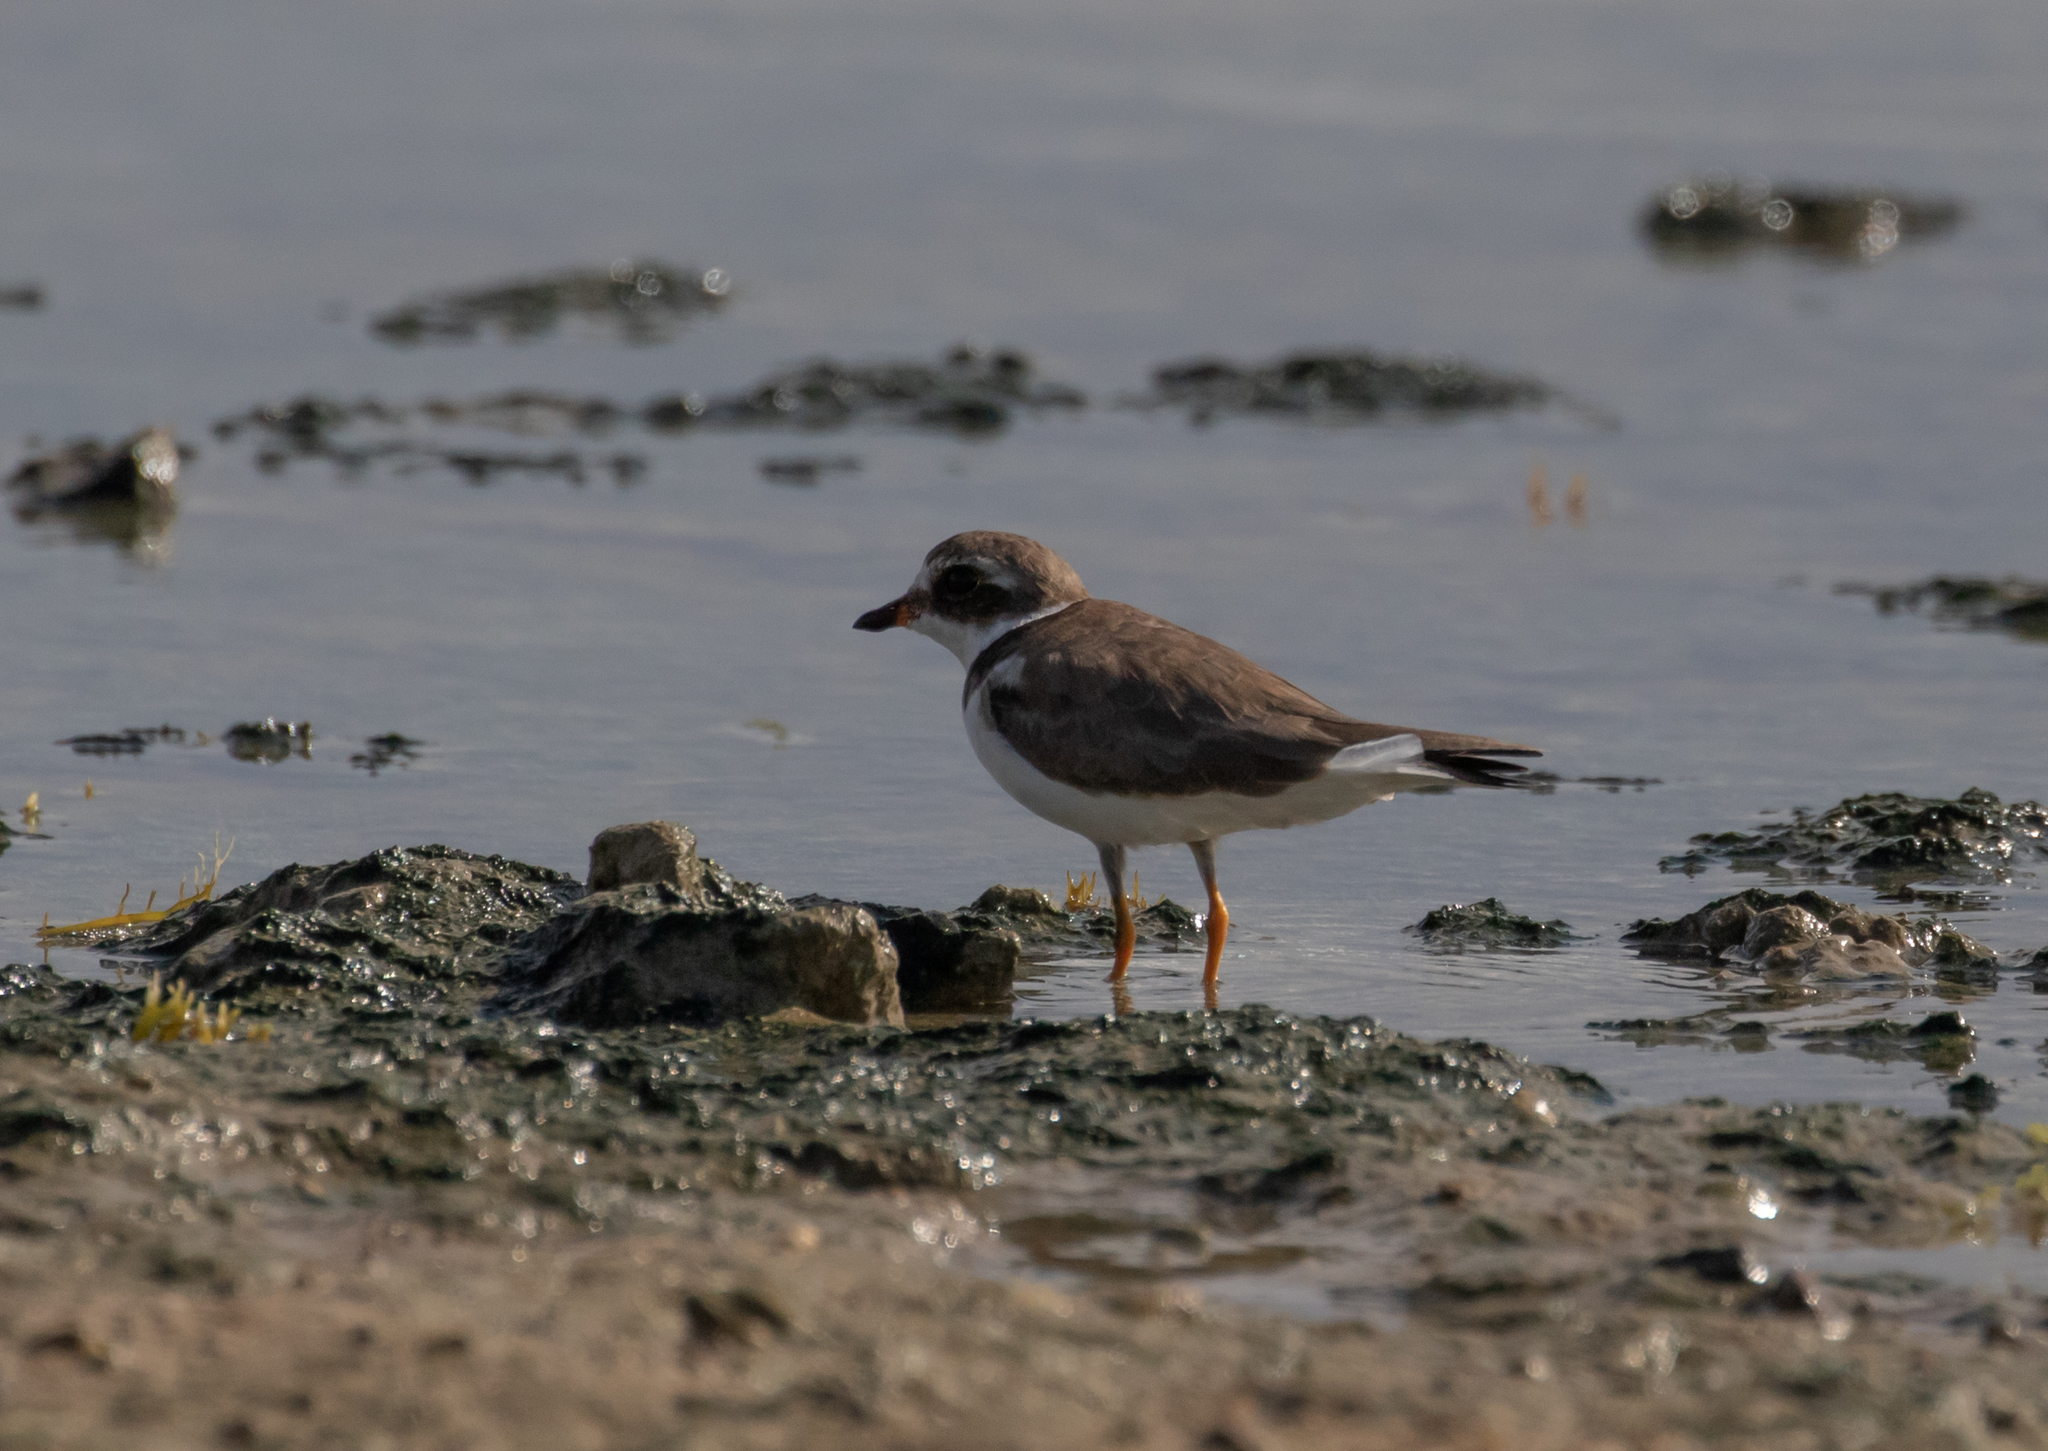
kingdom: Animalia
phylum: Chordata
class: Aves
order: Charadriiformes
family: Charadriidae
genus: Charadrius
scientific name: Charadrius semipalmatus
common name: Semipalmated plover
